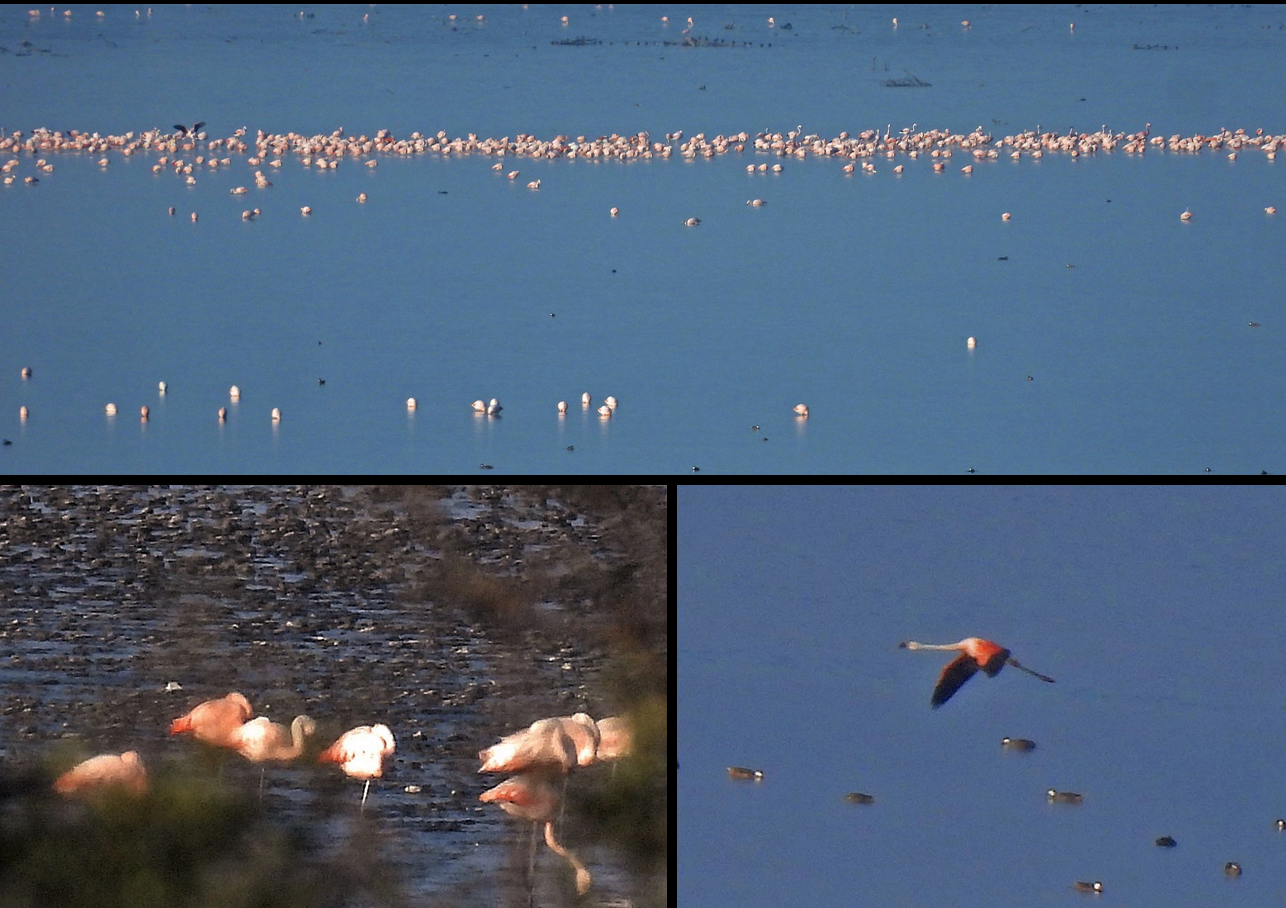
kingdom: Animalia
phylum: Chordata
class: Aves
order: Phoenicopteriformes
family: Phoenicopteridae
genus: Phoenicopterus
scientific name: Phoenicopterus chilensis
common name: Chilean flamingo
